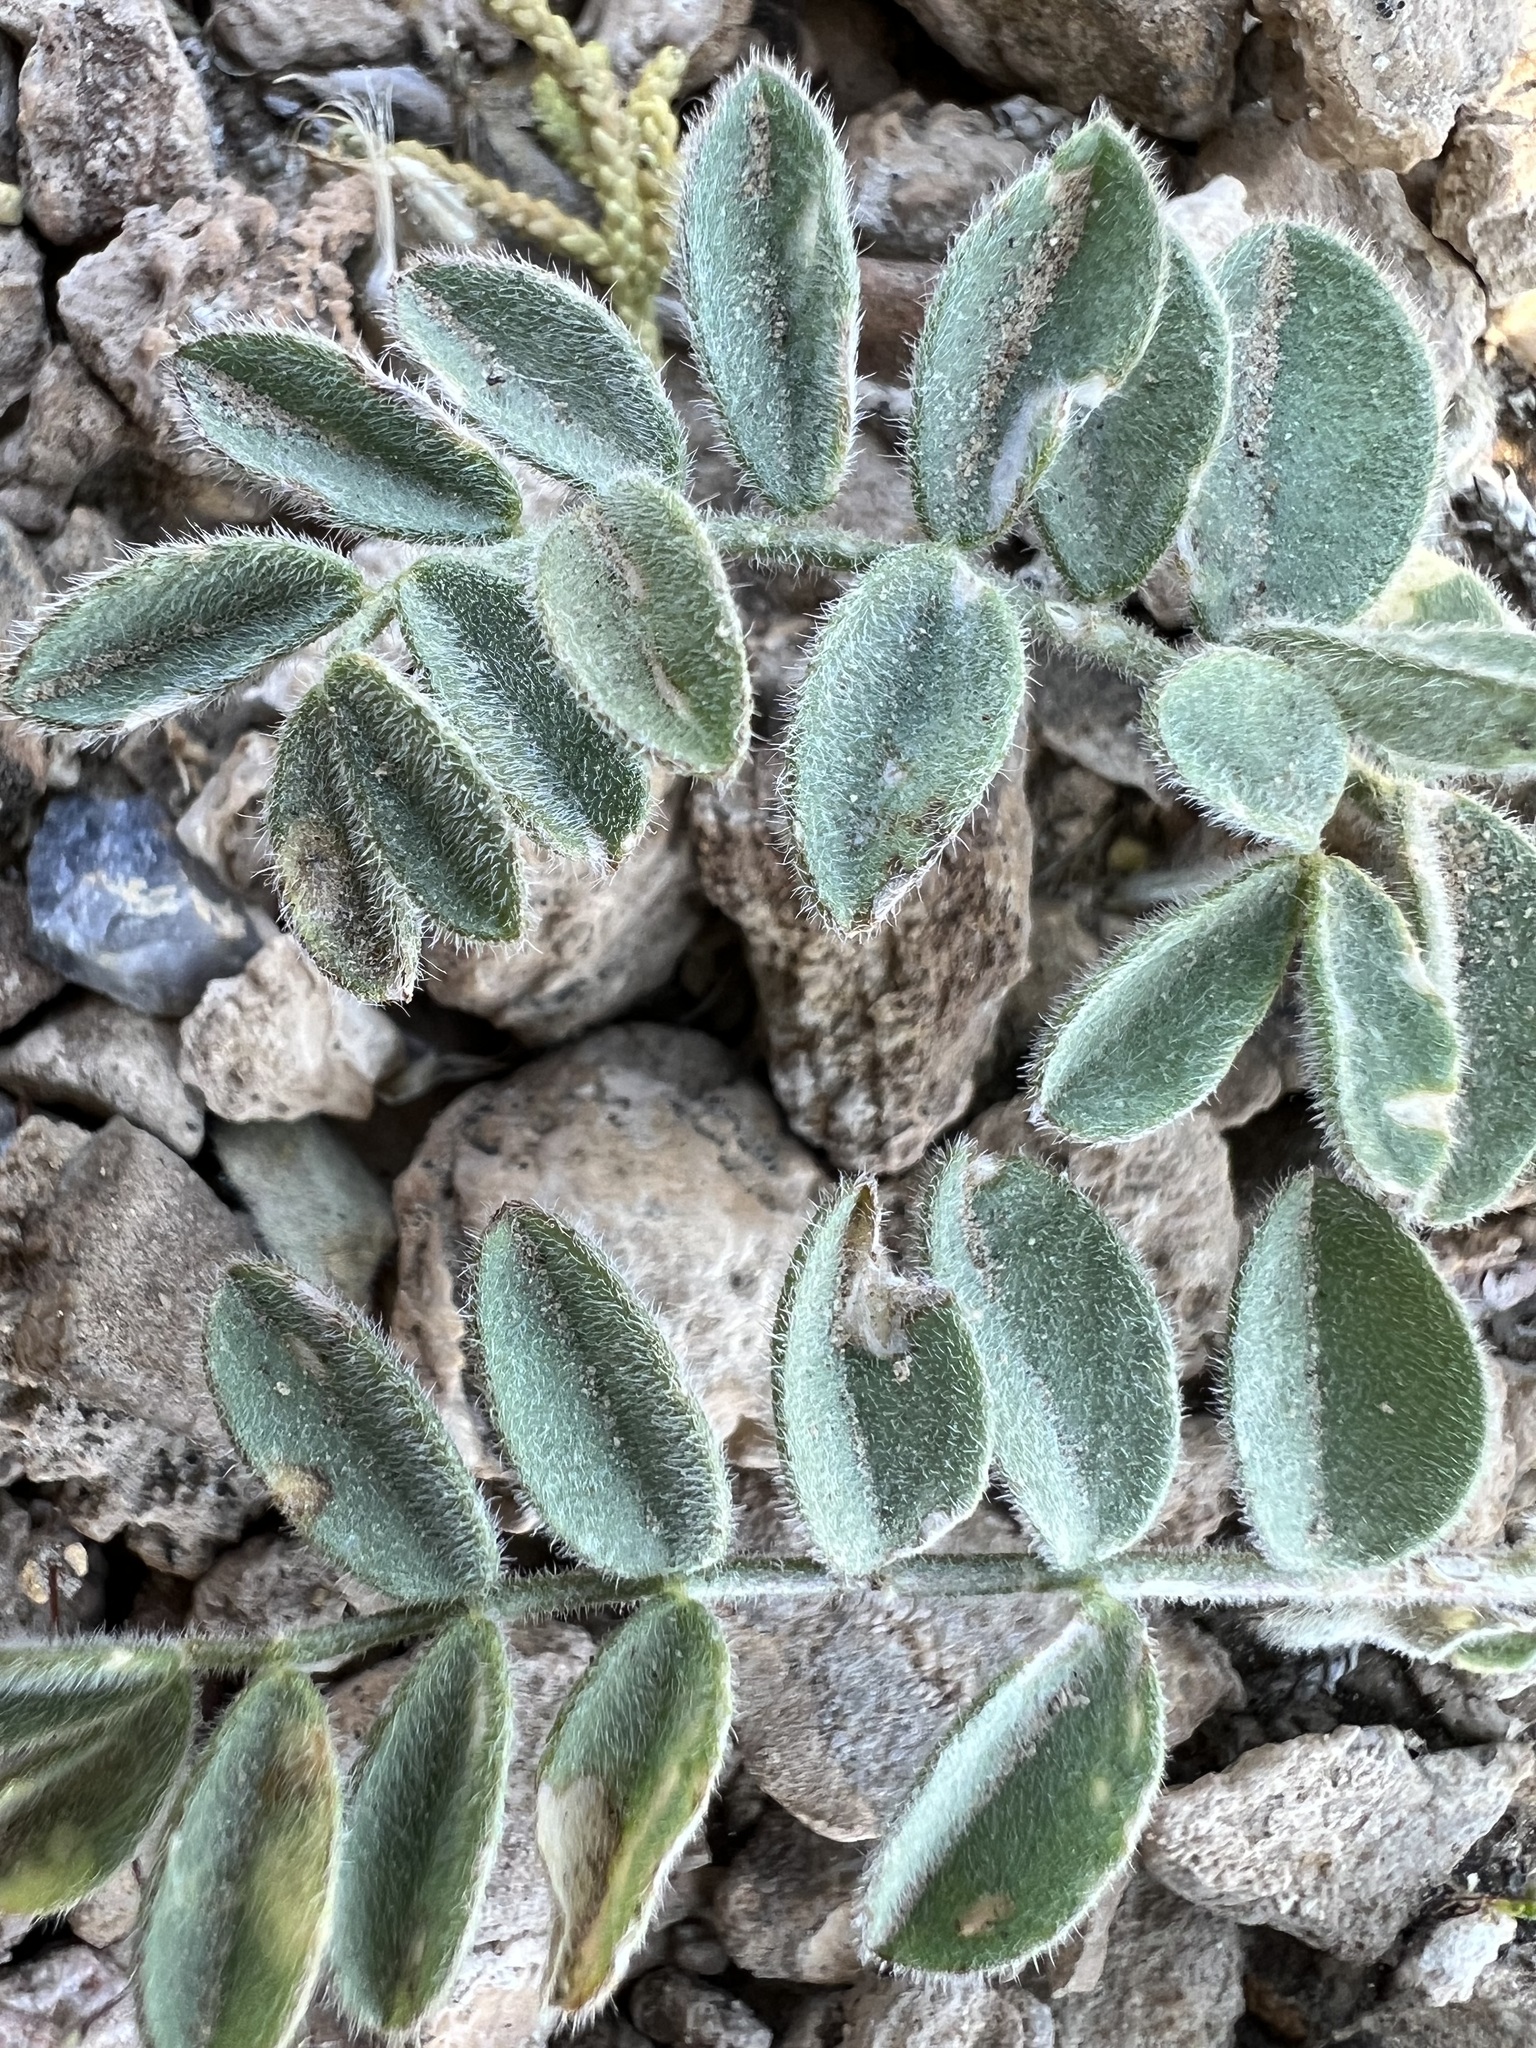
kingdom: Plantae
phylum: Tracheophyta
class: Magnoliopsida
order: Fabales
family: Fabaceae
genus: Astragalus
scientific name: Astragalus minthorniae
